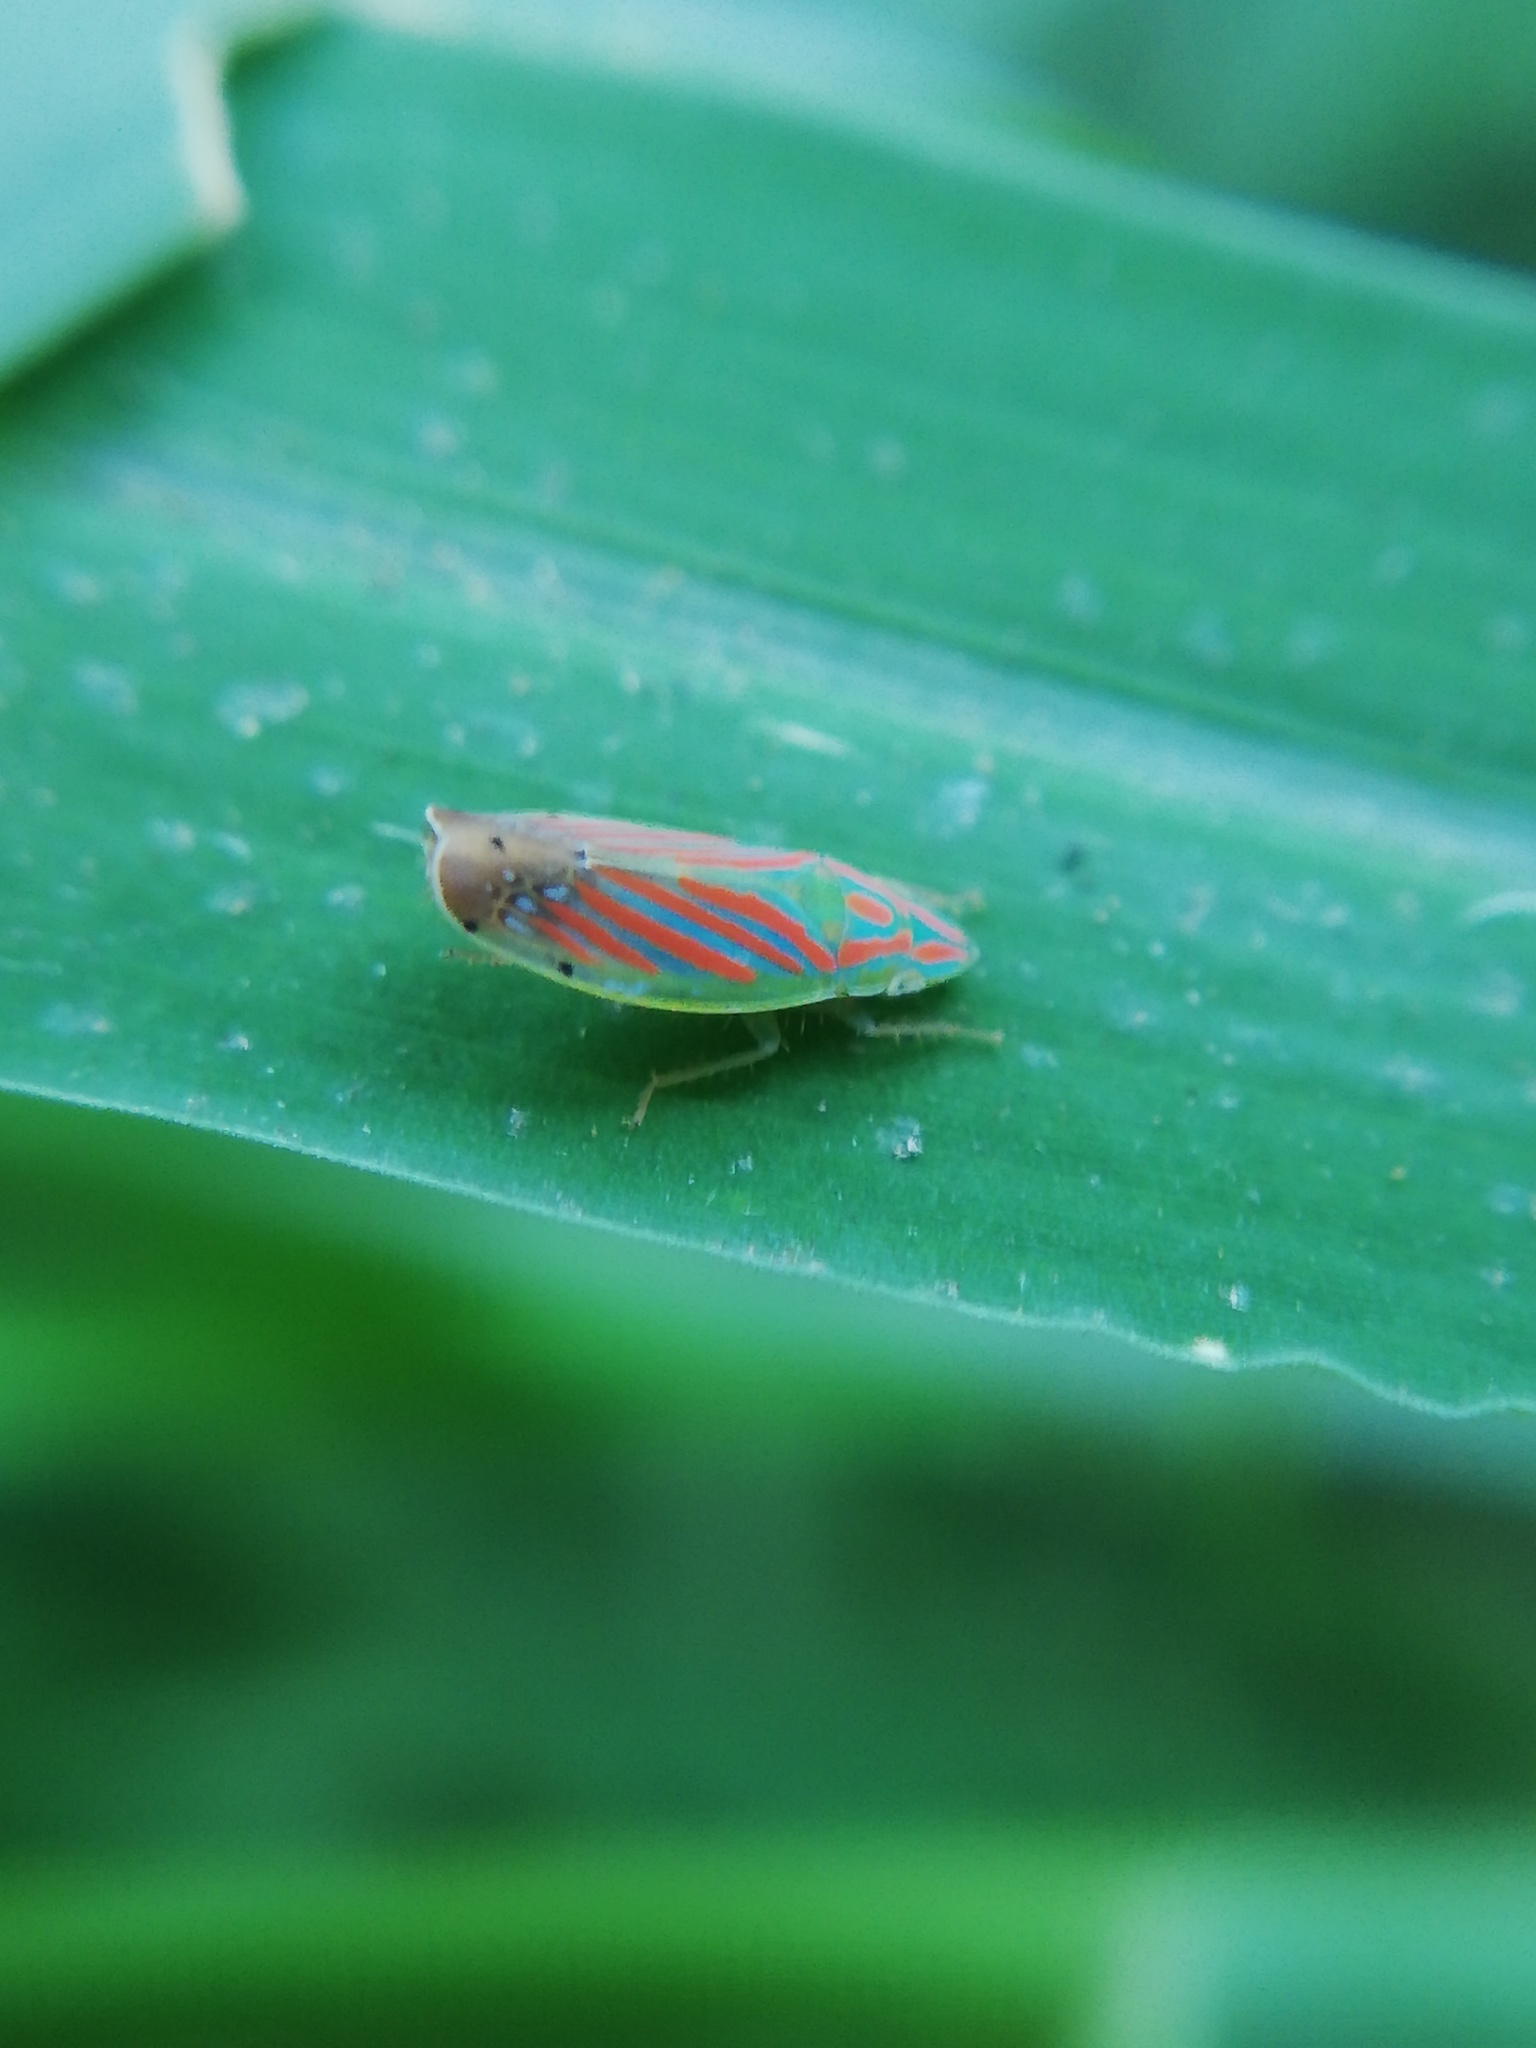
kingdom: Animalia
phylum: Arthropoda
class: Insecta
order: Hemiptera
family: Cicadellidae
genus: Spangbergiella
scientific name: Spangbergiella viridis
